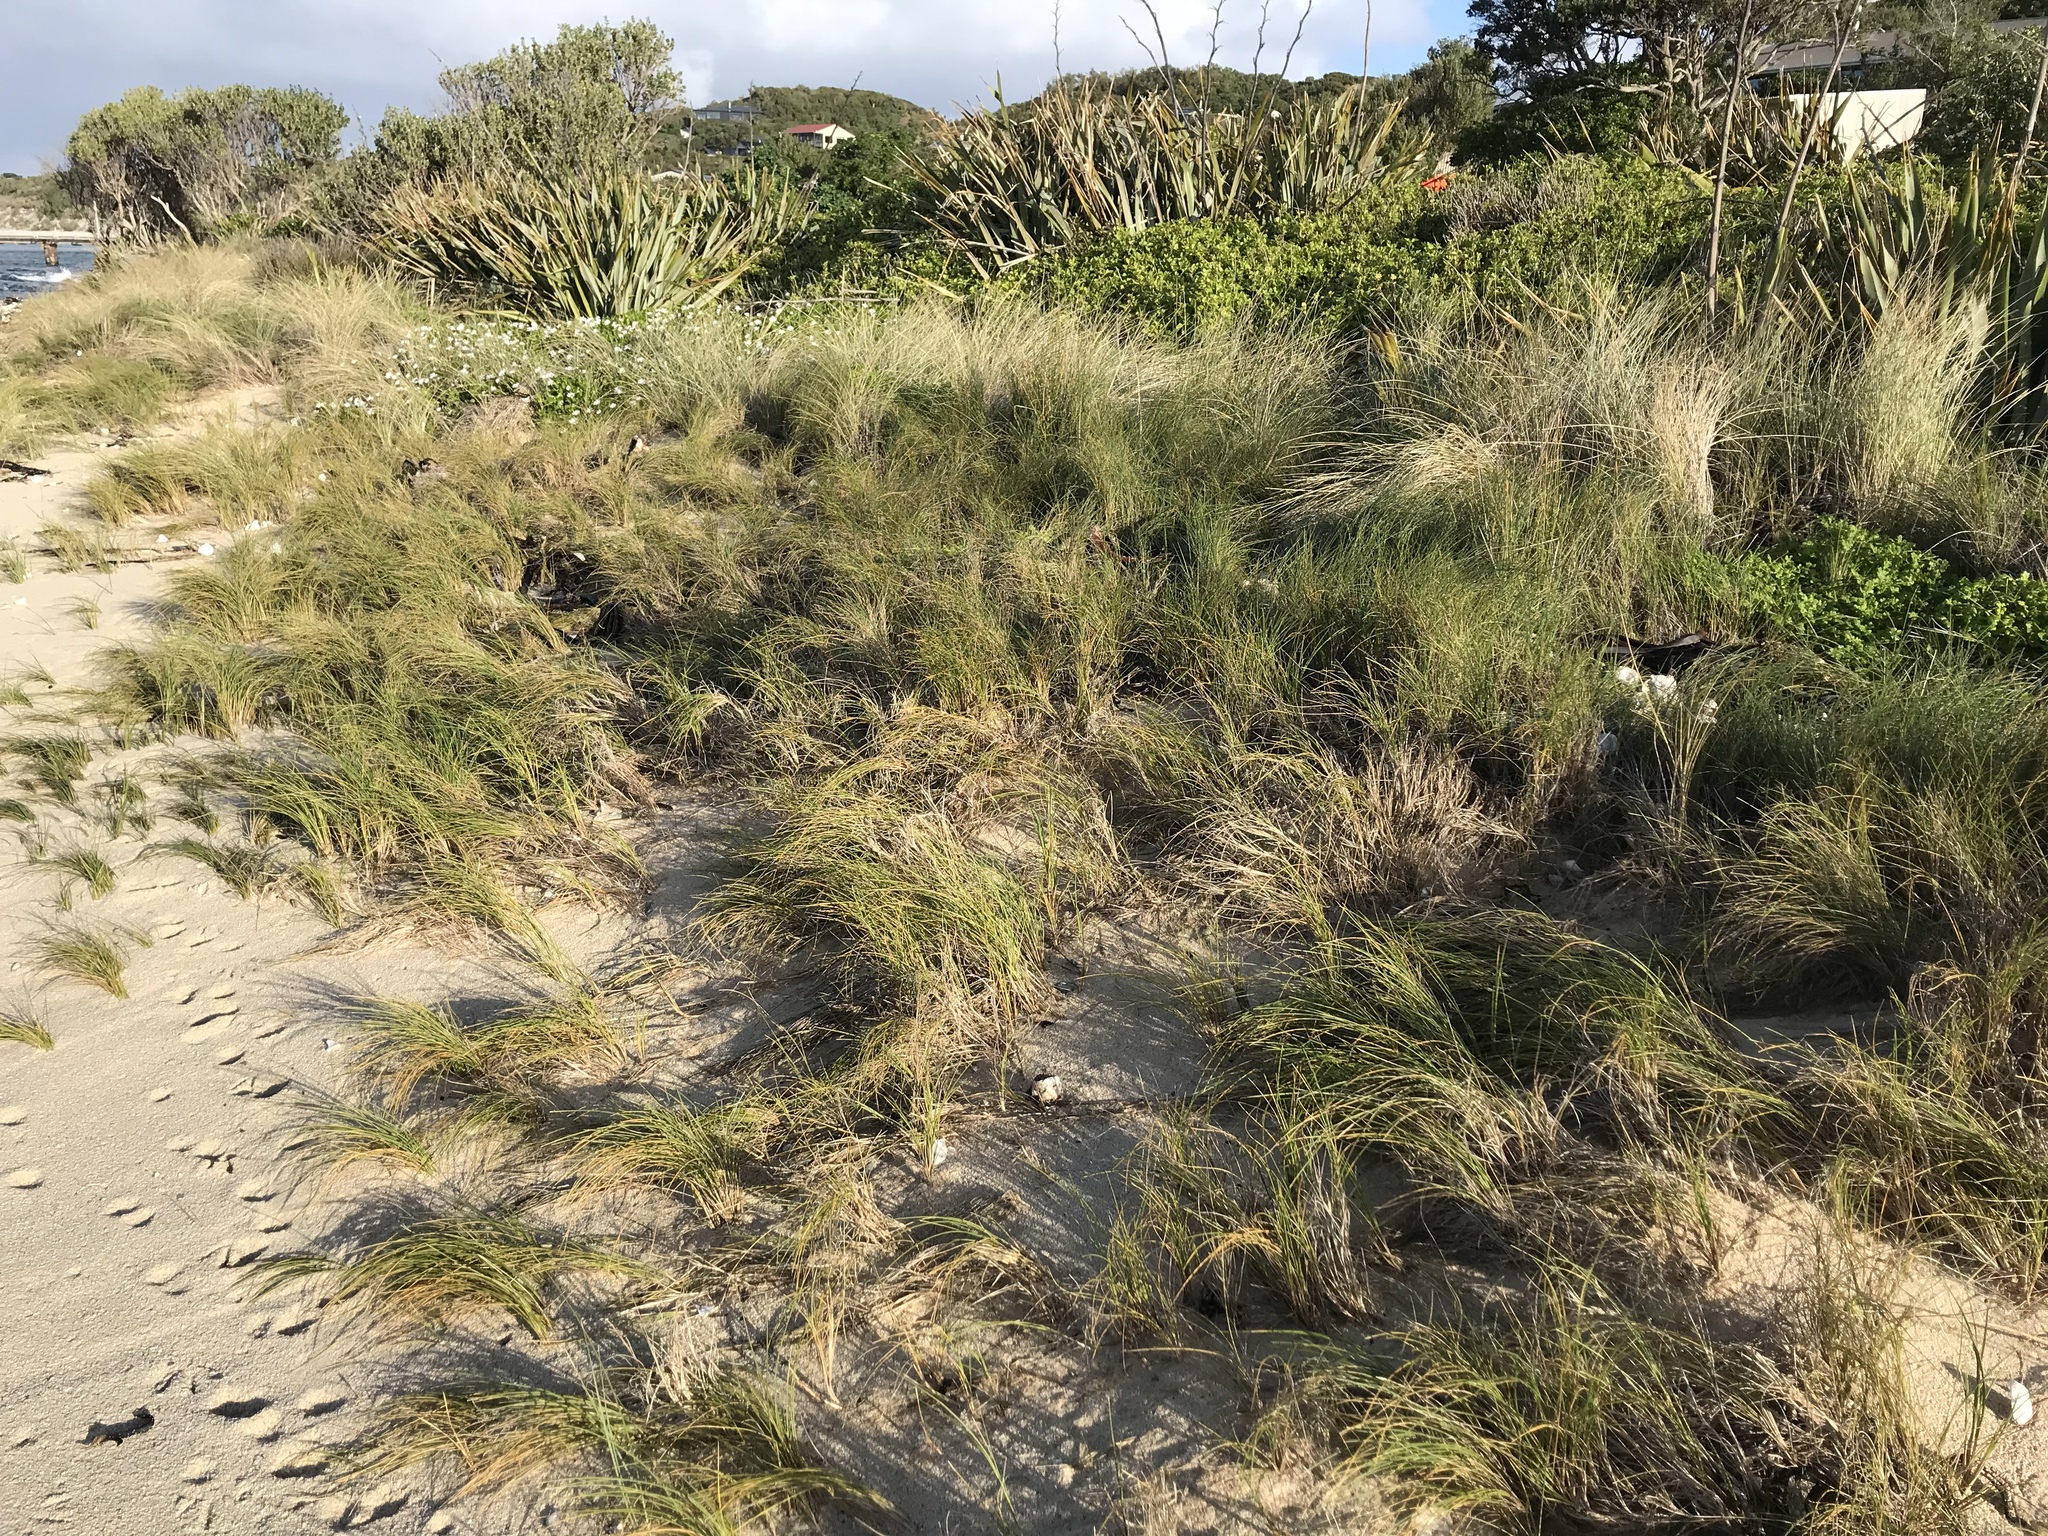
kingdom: Plantae
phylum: Tracheophyta
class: Liliopsida
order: Poales
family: Poaceae
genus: Calamagrostis
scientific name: Calamagrostis arenaria
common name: European beachgrass
